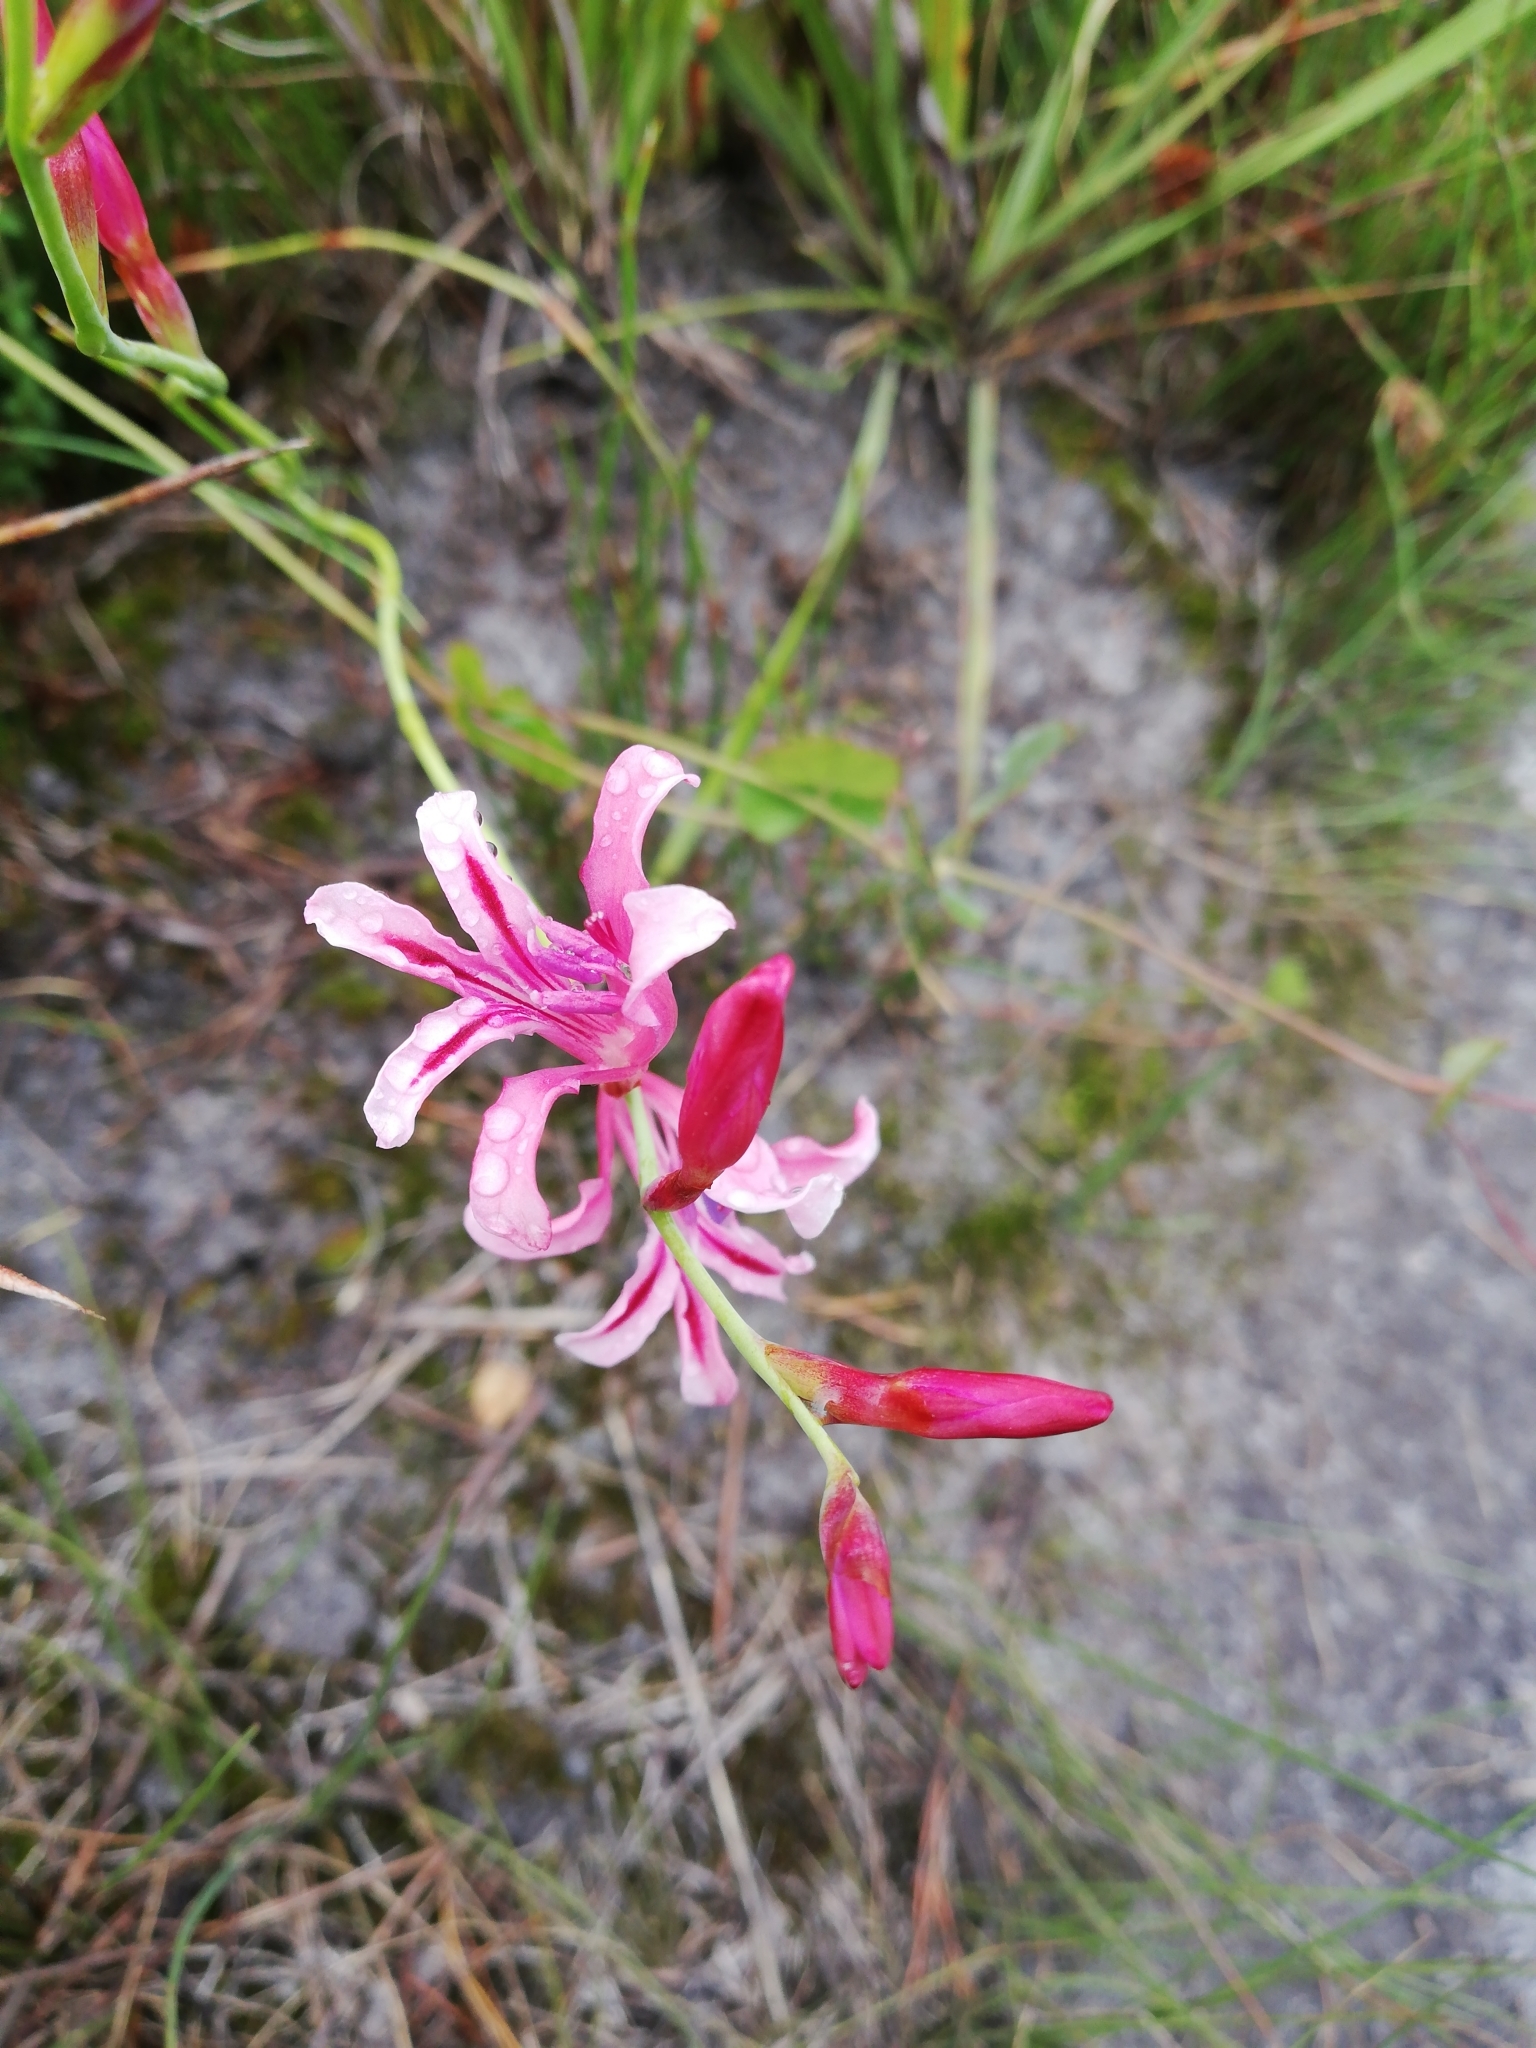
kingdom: Plantae
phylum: Tracheophyta
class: Liliopsida
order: Asparagales
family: Iridaceae
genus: Tritoniopsis
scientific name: Tritoniopsis ramosa
